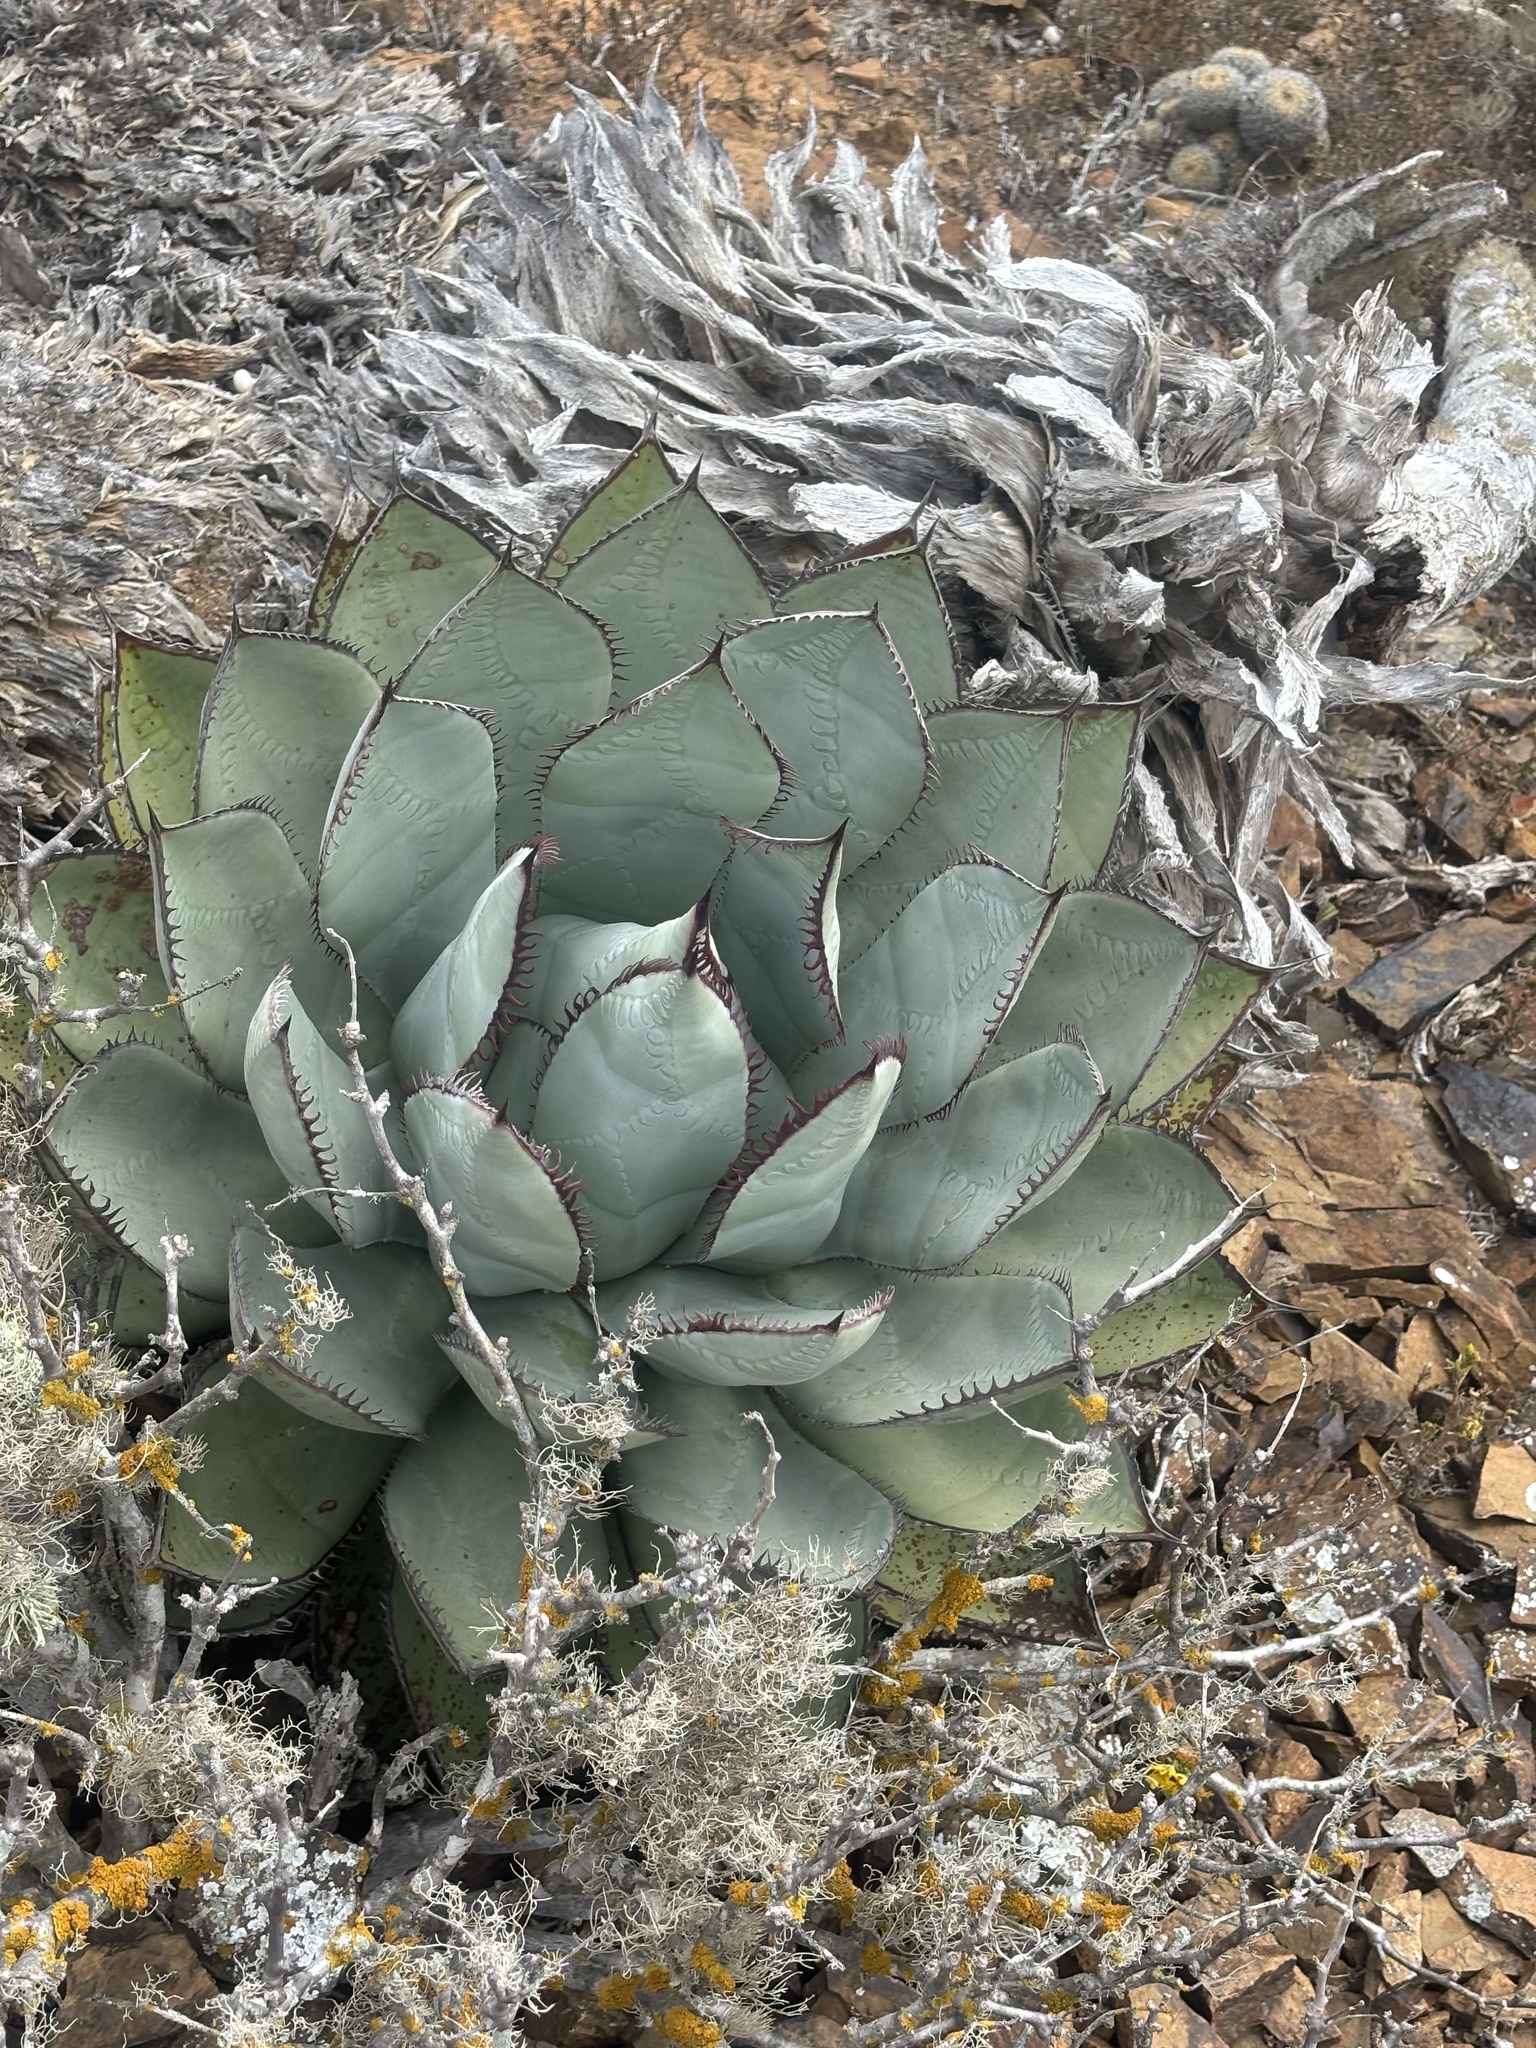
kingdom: Plantae
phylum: Tracheophyta
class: Liliopsida
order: Asparagales
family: Asparagaceae
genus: Agave
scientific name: Agave sebastiana
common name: Cedros agave
